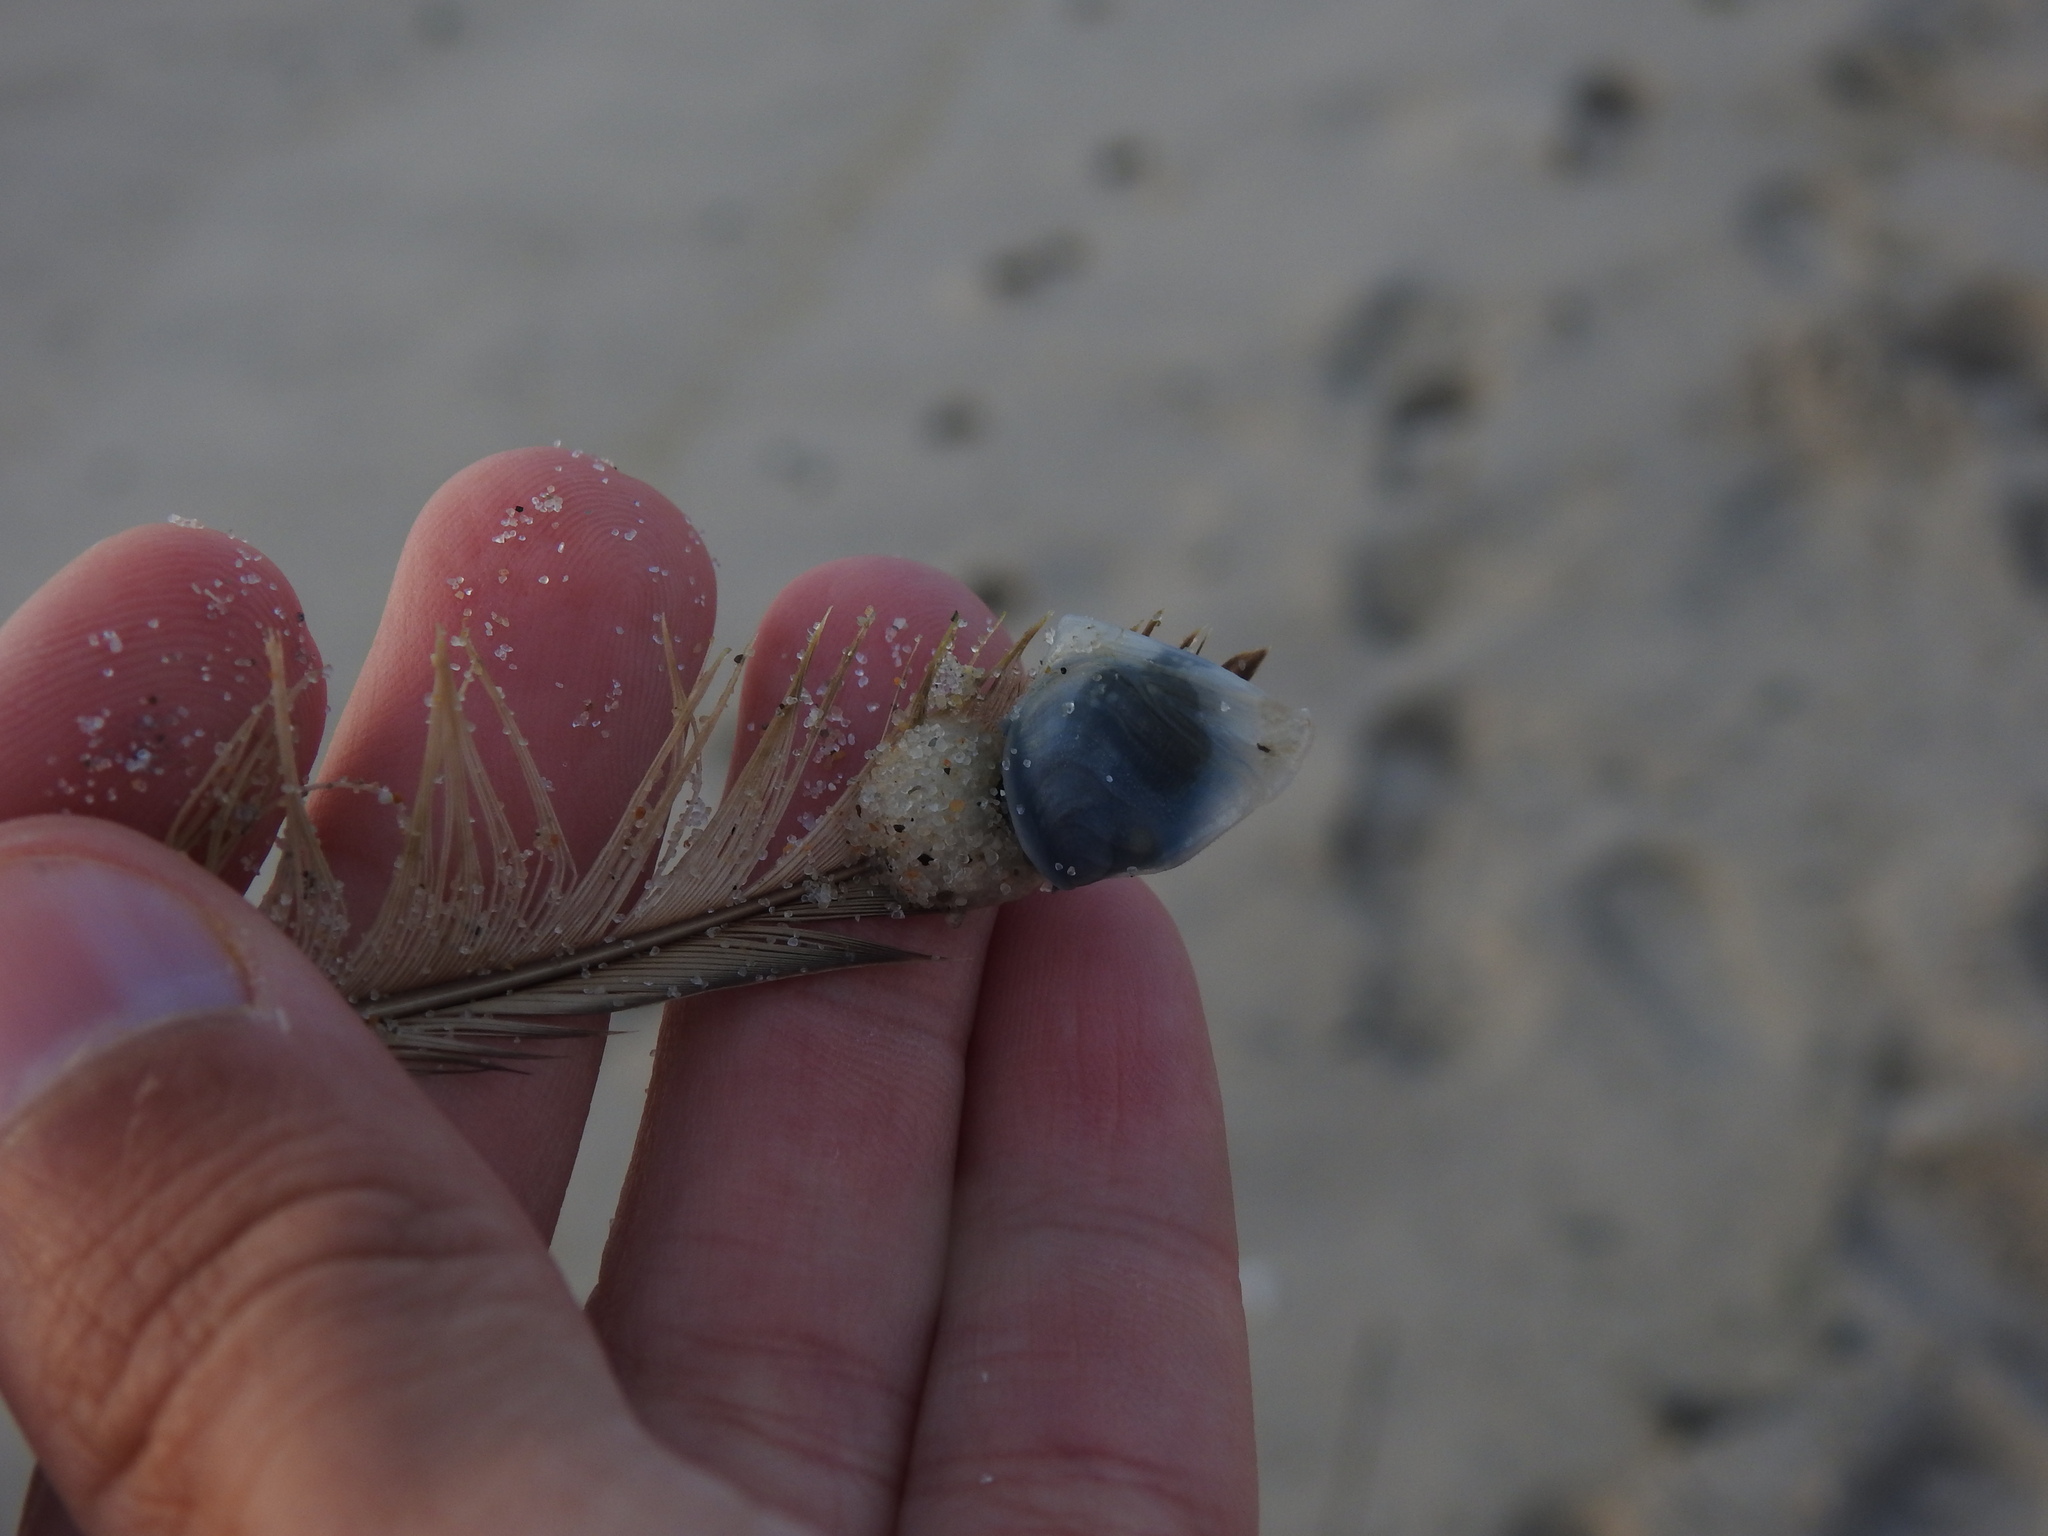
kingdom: Animalia
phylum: Arthropoda
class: Maxillopoda
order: Pedunculata
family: Lepadidae
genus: Dosima
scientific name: Dosima fascicularis
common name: Buoy barnacle
